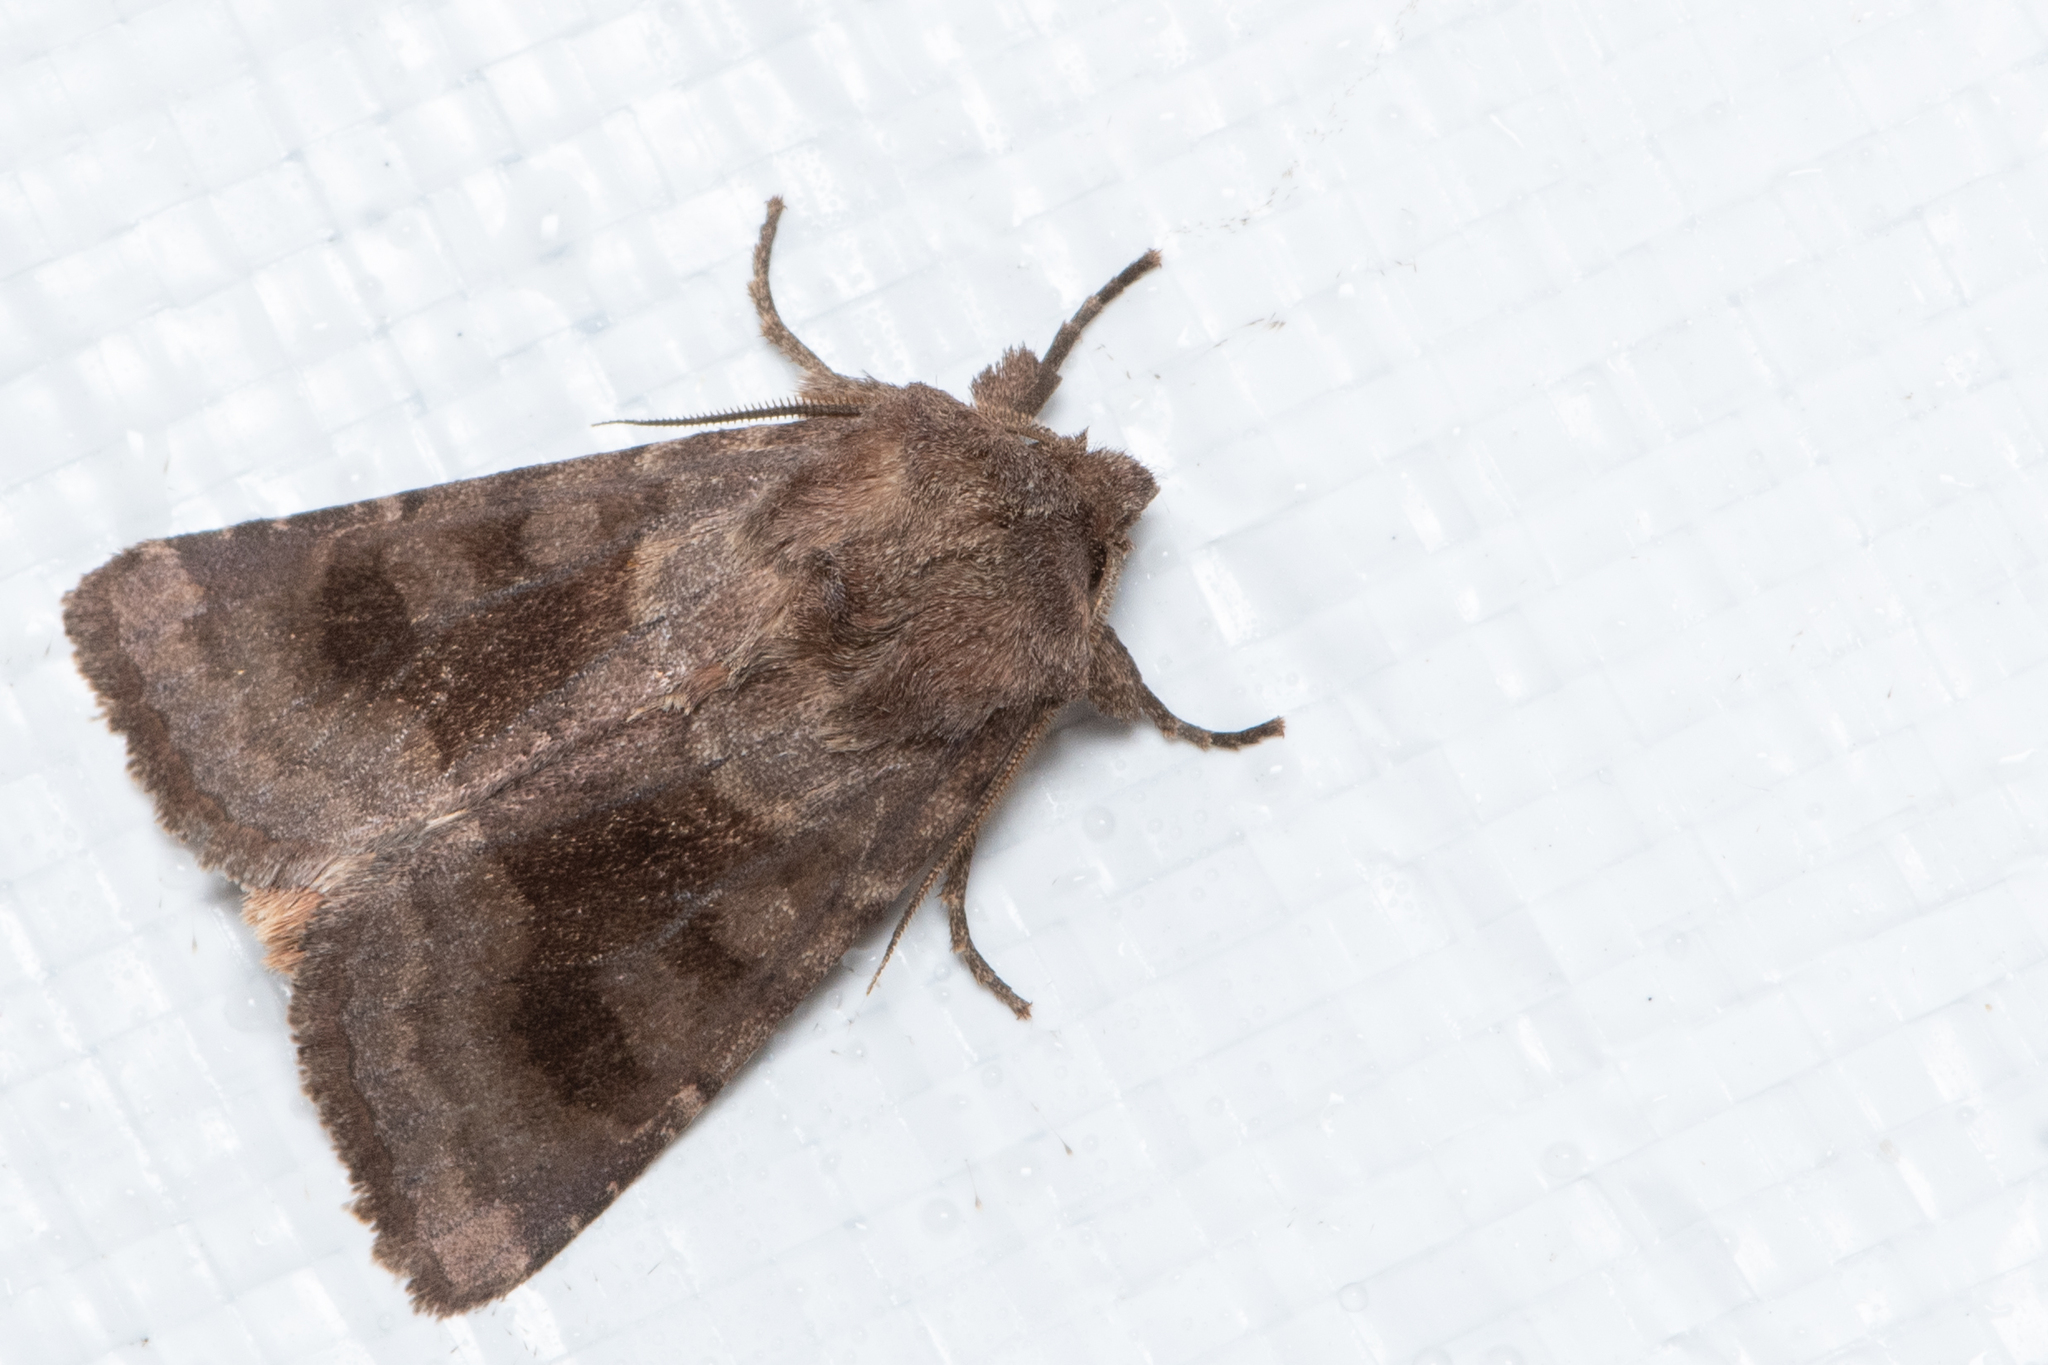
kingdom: Animalia
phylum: Arthropoda
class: Insecta
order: Lepidoptera
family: Noctuidae
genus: Nephelodes
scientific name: Nephelodes minians
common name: Bronzed cutworm
